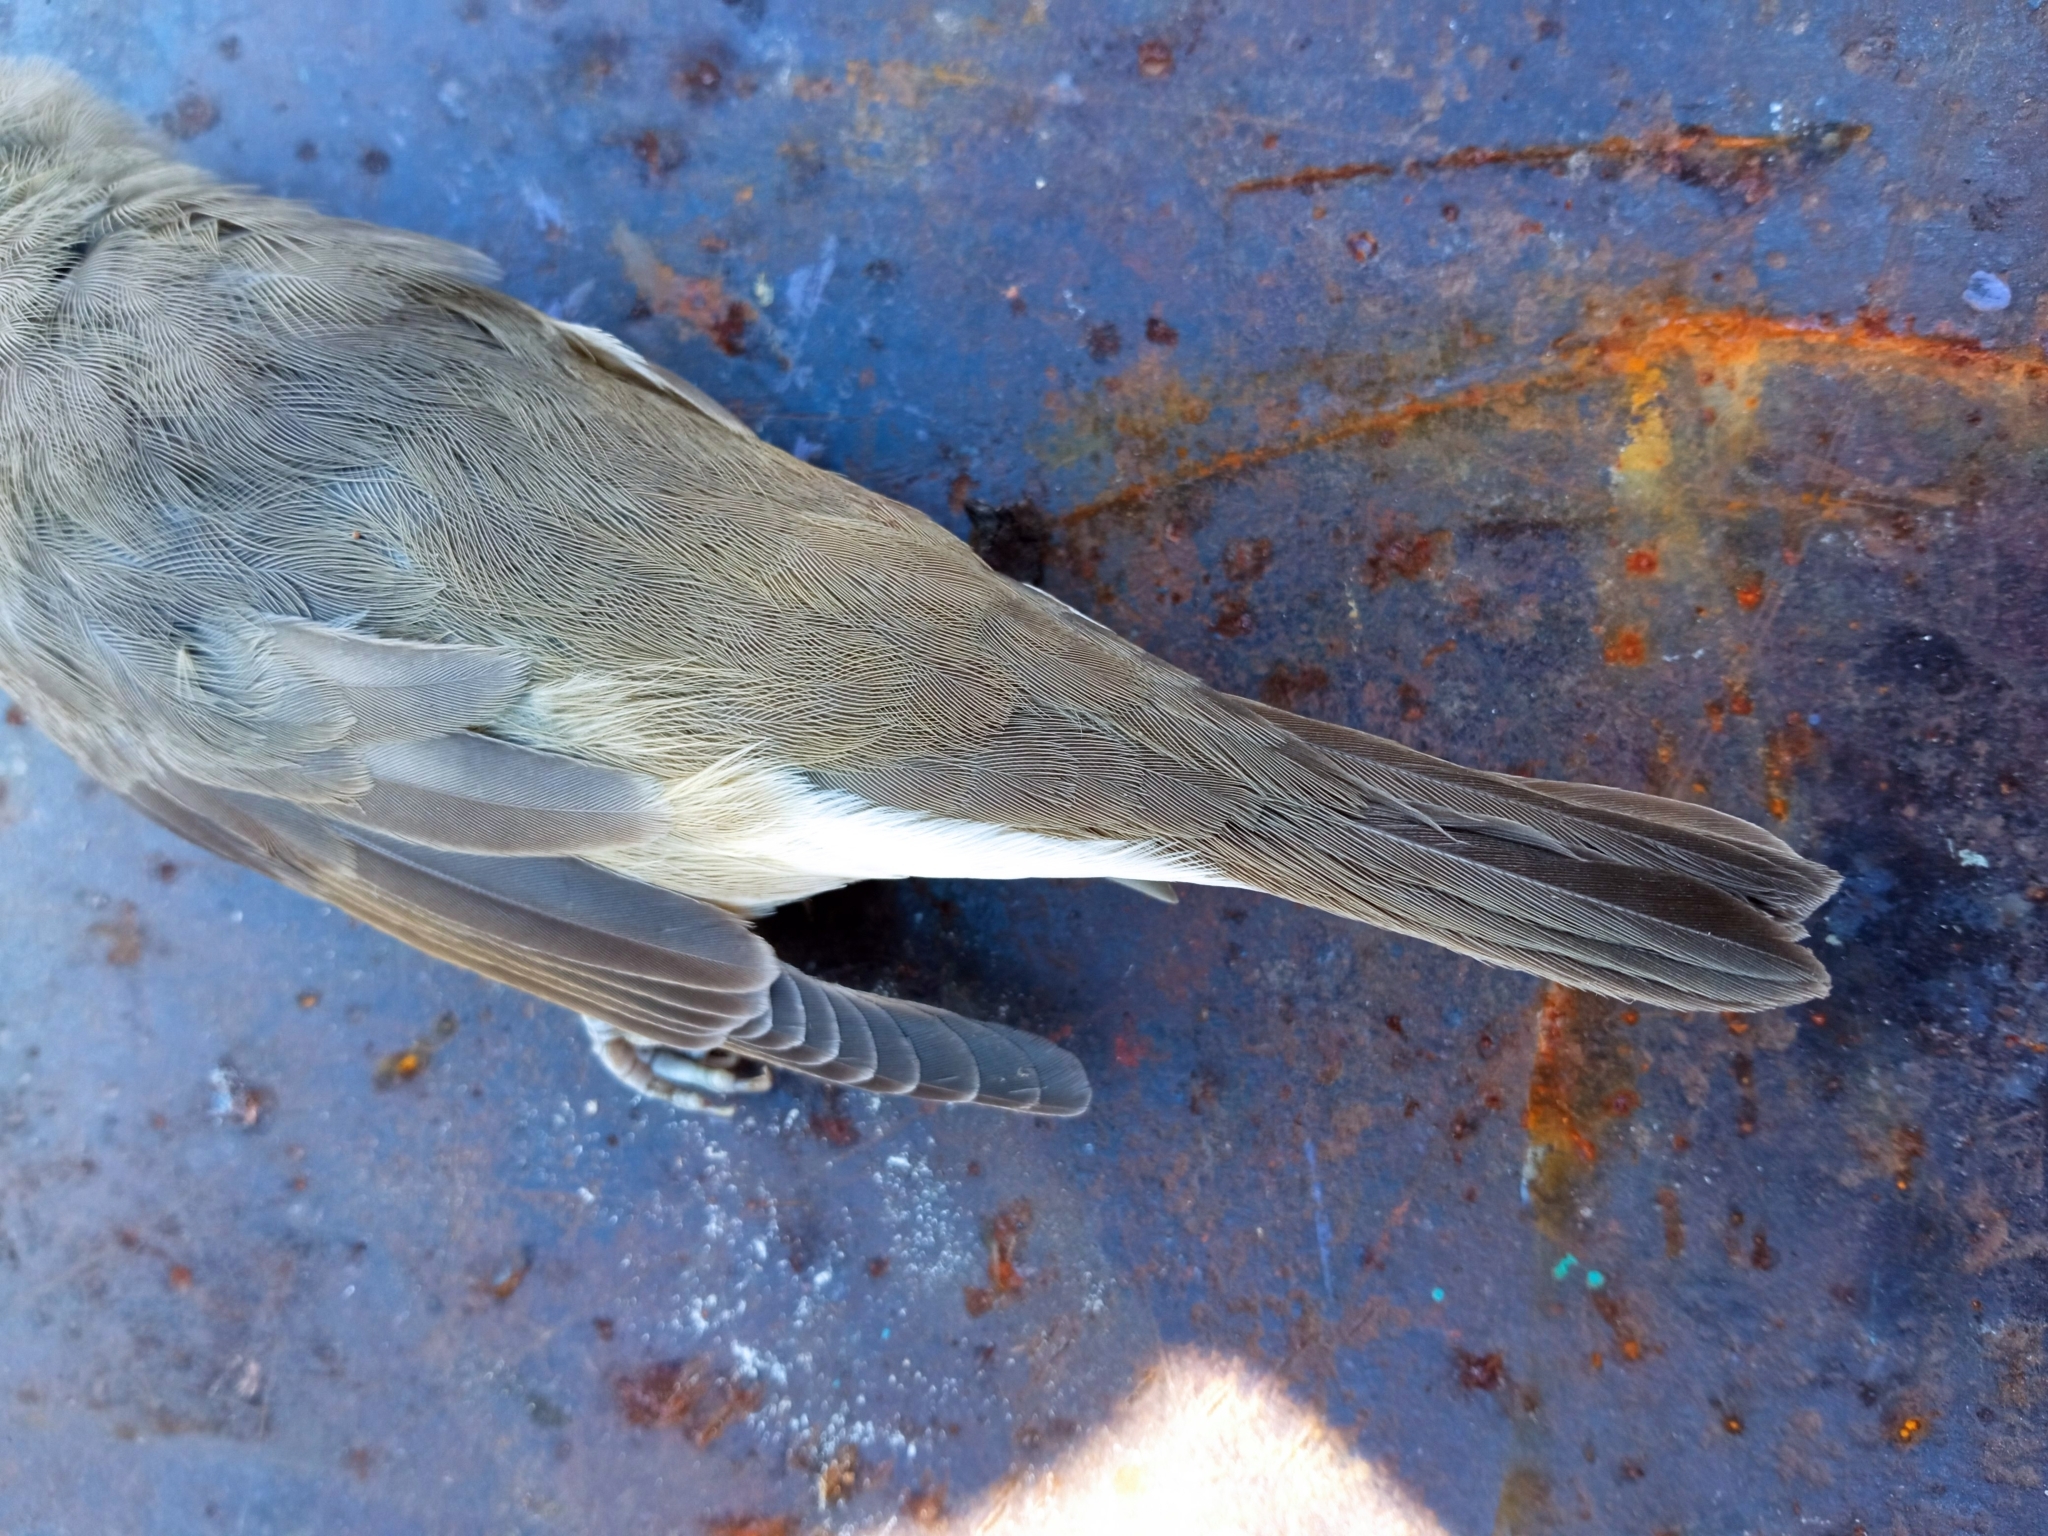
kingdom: Animalia
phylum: Chordata
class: Aves
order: Passeriformes
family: Sylviidae
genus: Sylvia
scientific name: Sylvia borin
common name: Garden warbler
